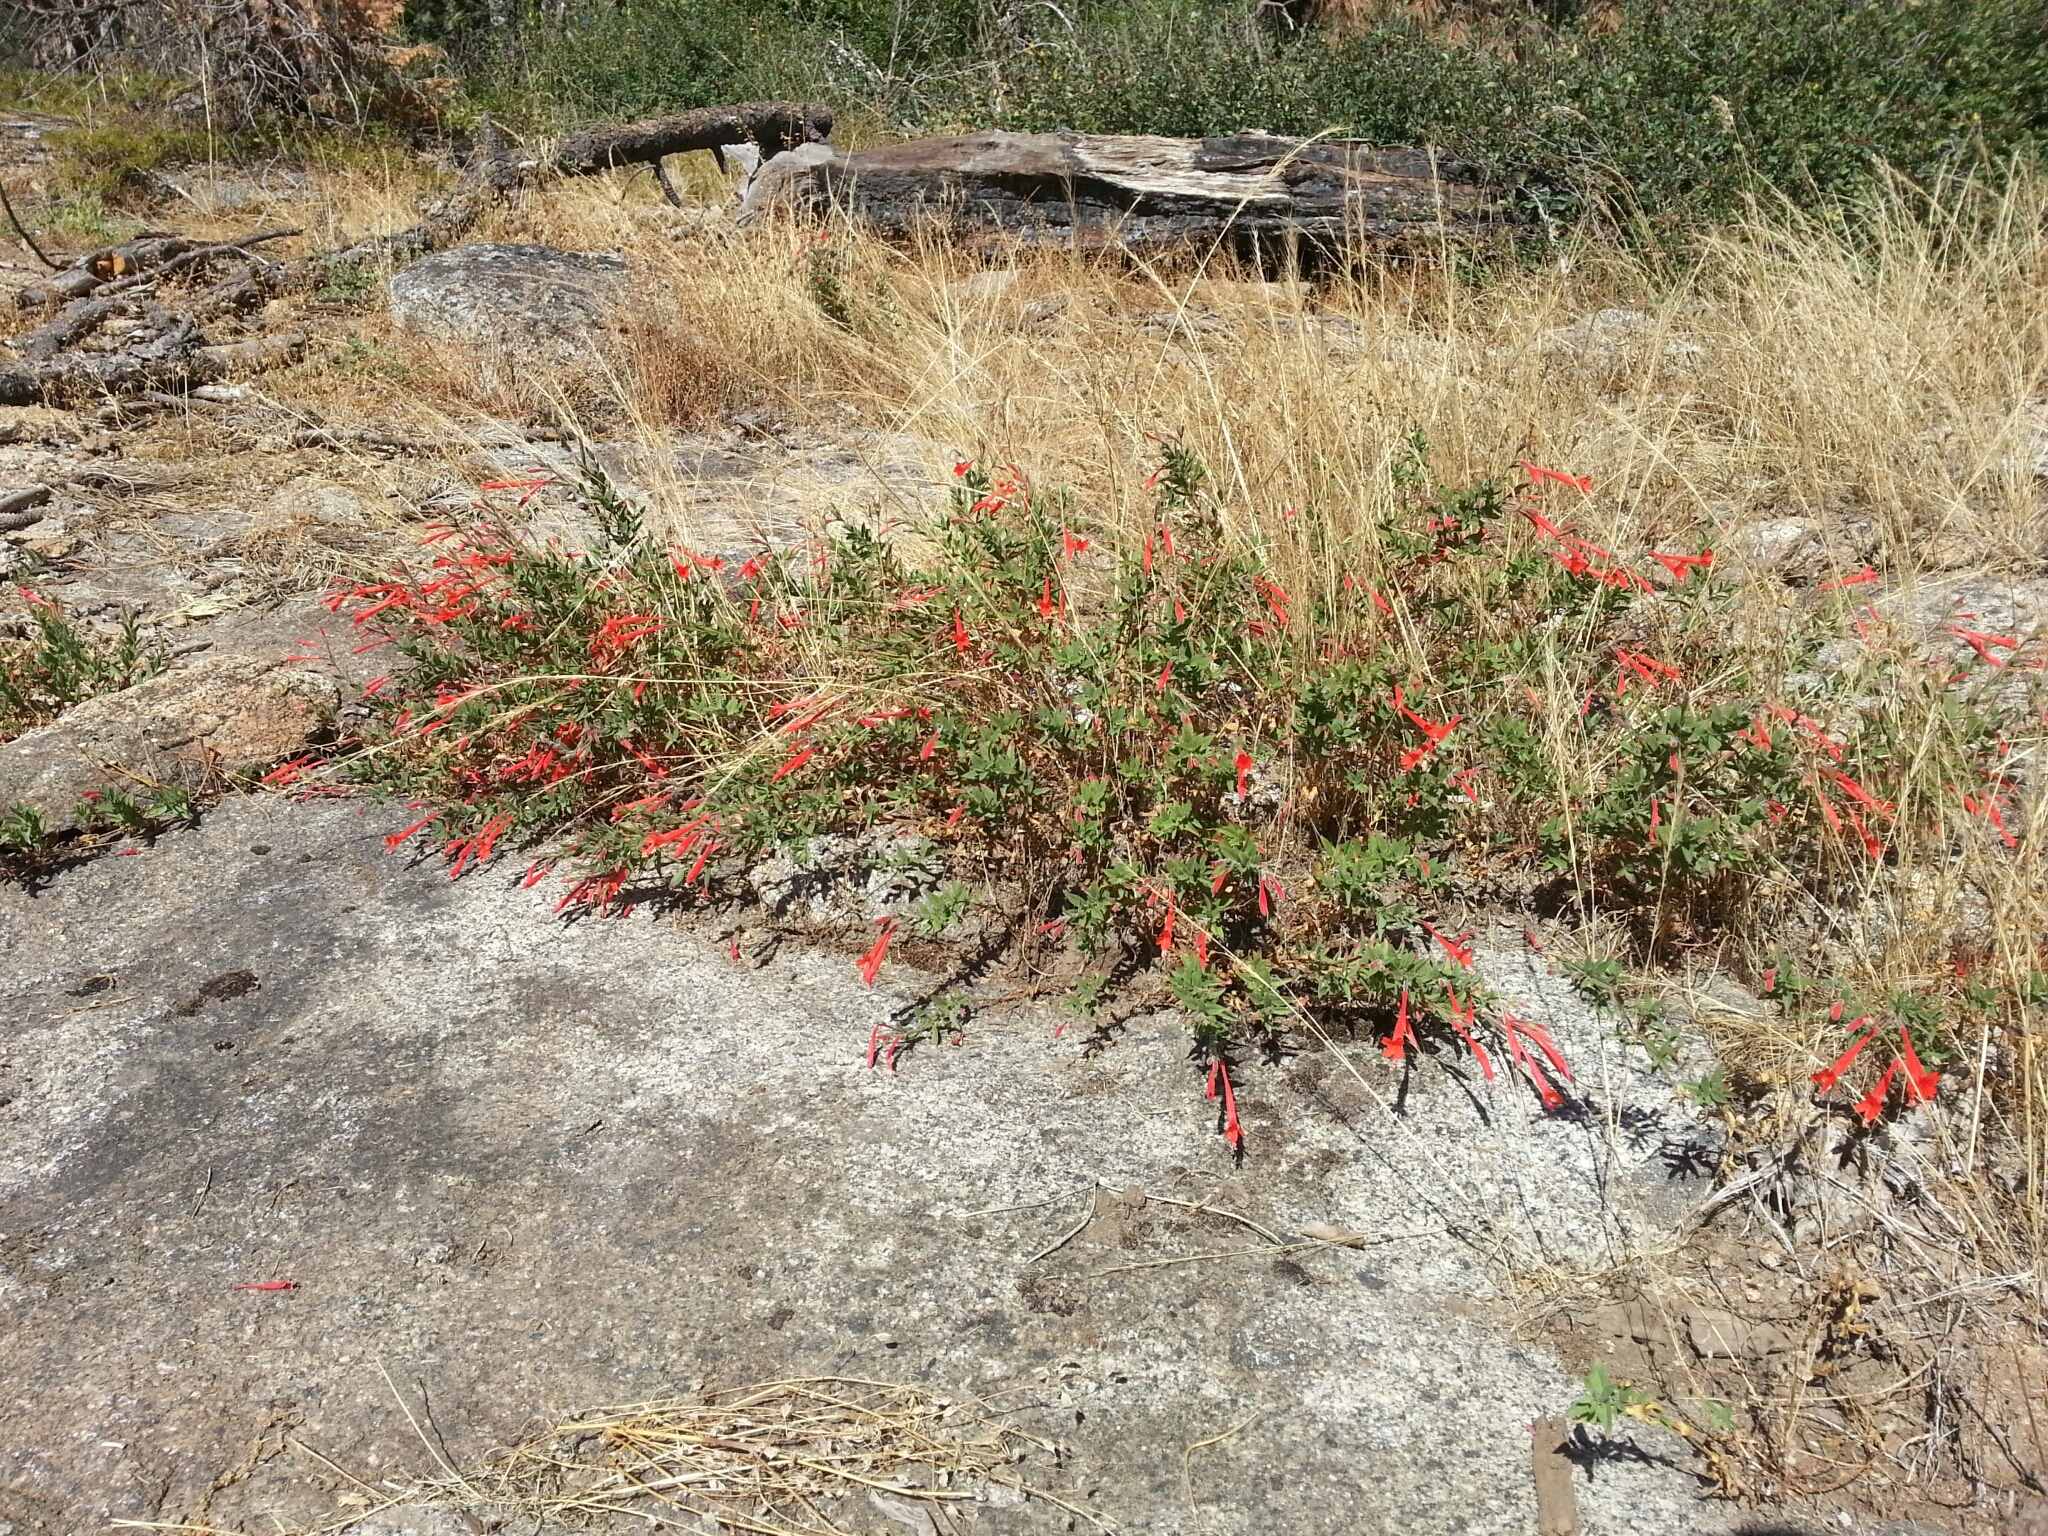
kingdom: Plantae
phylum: Tracheophyta
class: Magnoliopsida
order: Myrtales
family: Onagraceae
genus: Epilobium
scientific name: Epilobium canum
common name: California-fuchsia
